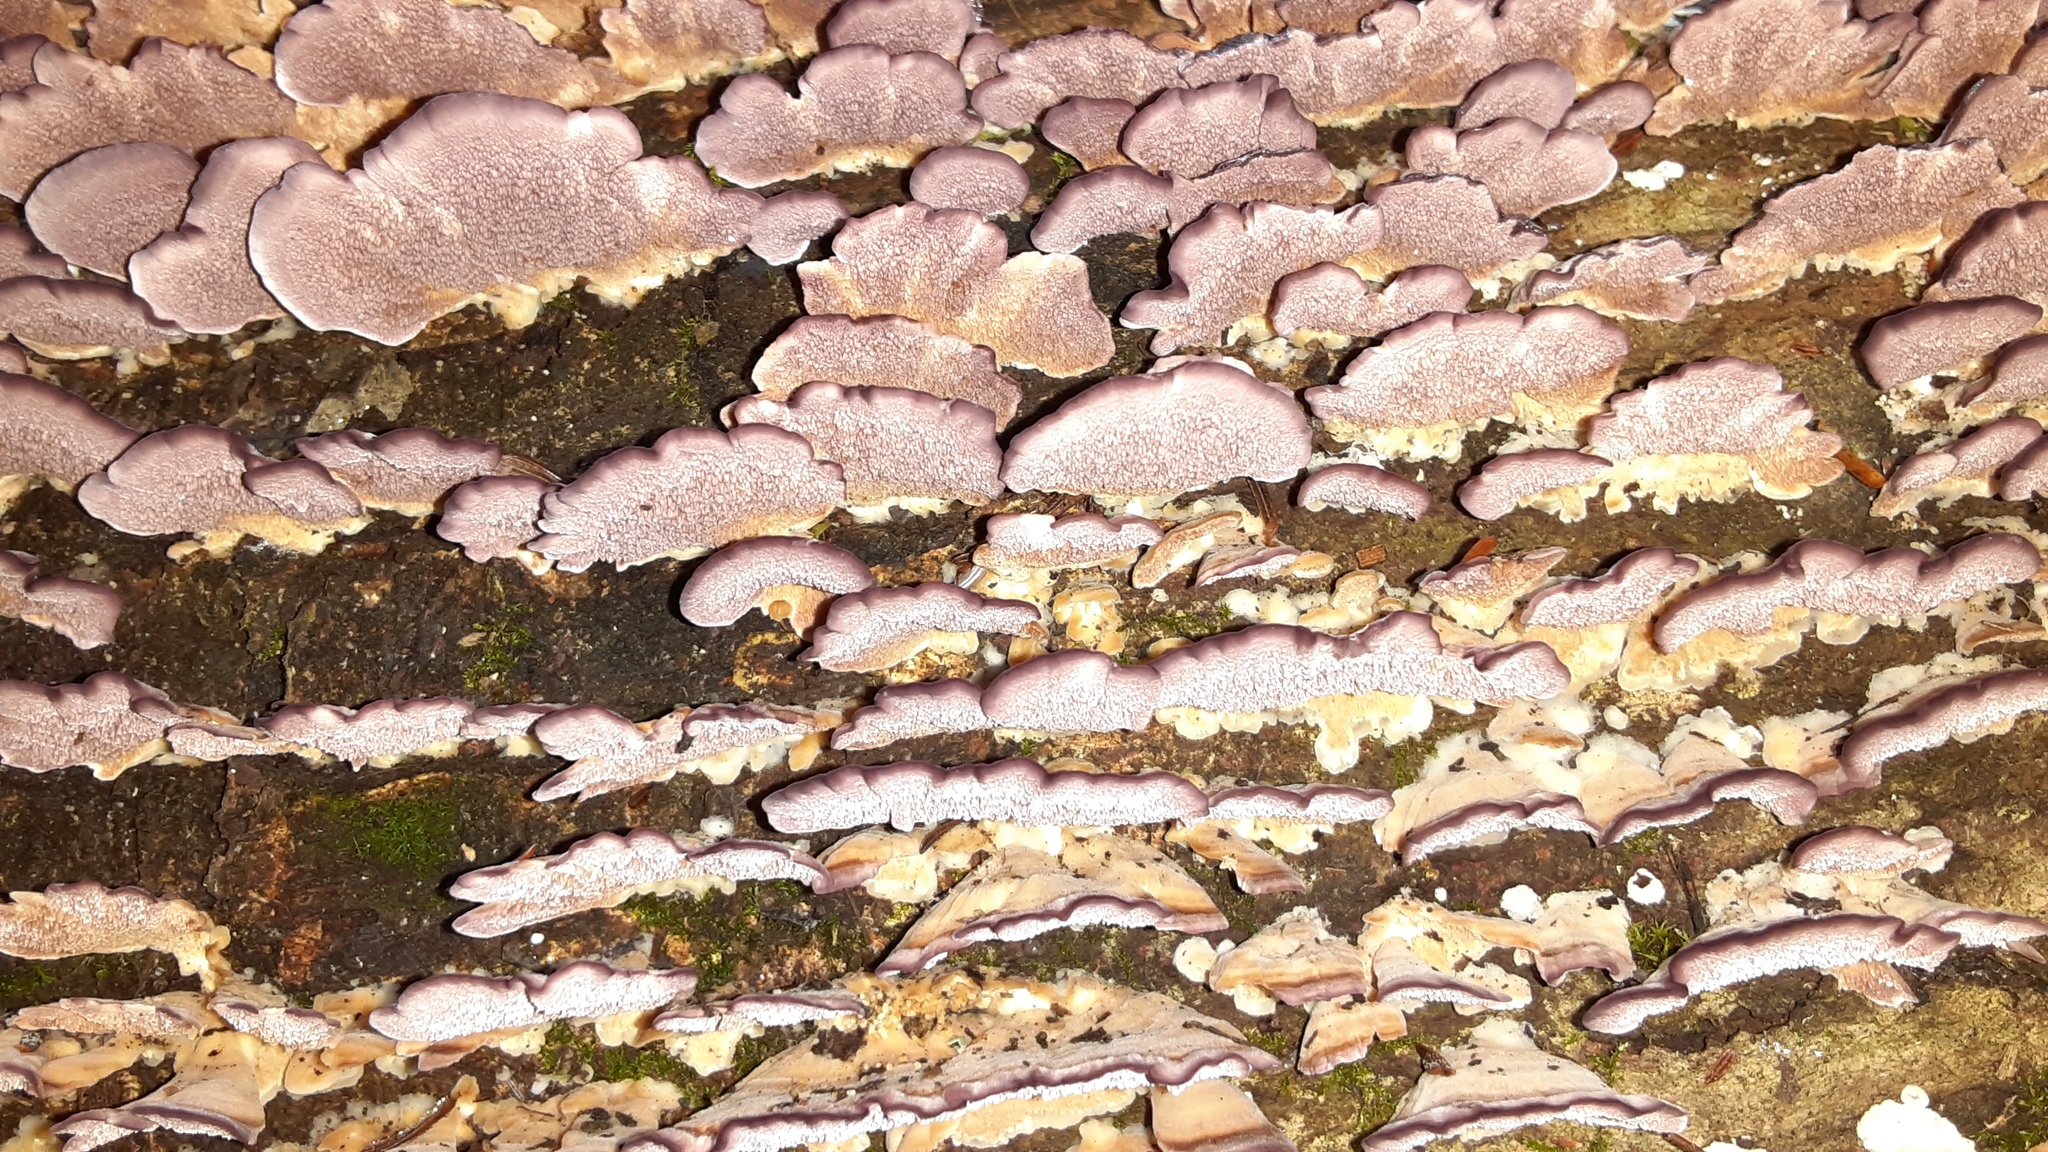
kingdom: Fungi
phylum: Basidiomycota
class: Agaricomycetes
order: Hymenochaetales
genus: Trichaptum
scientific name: Trichaptum biforme
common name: Violet-toothed polypore
